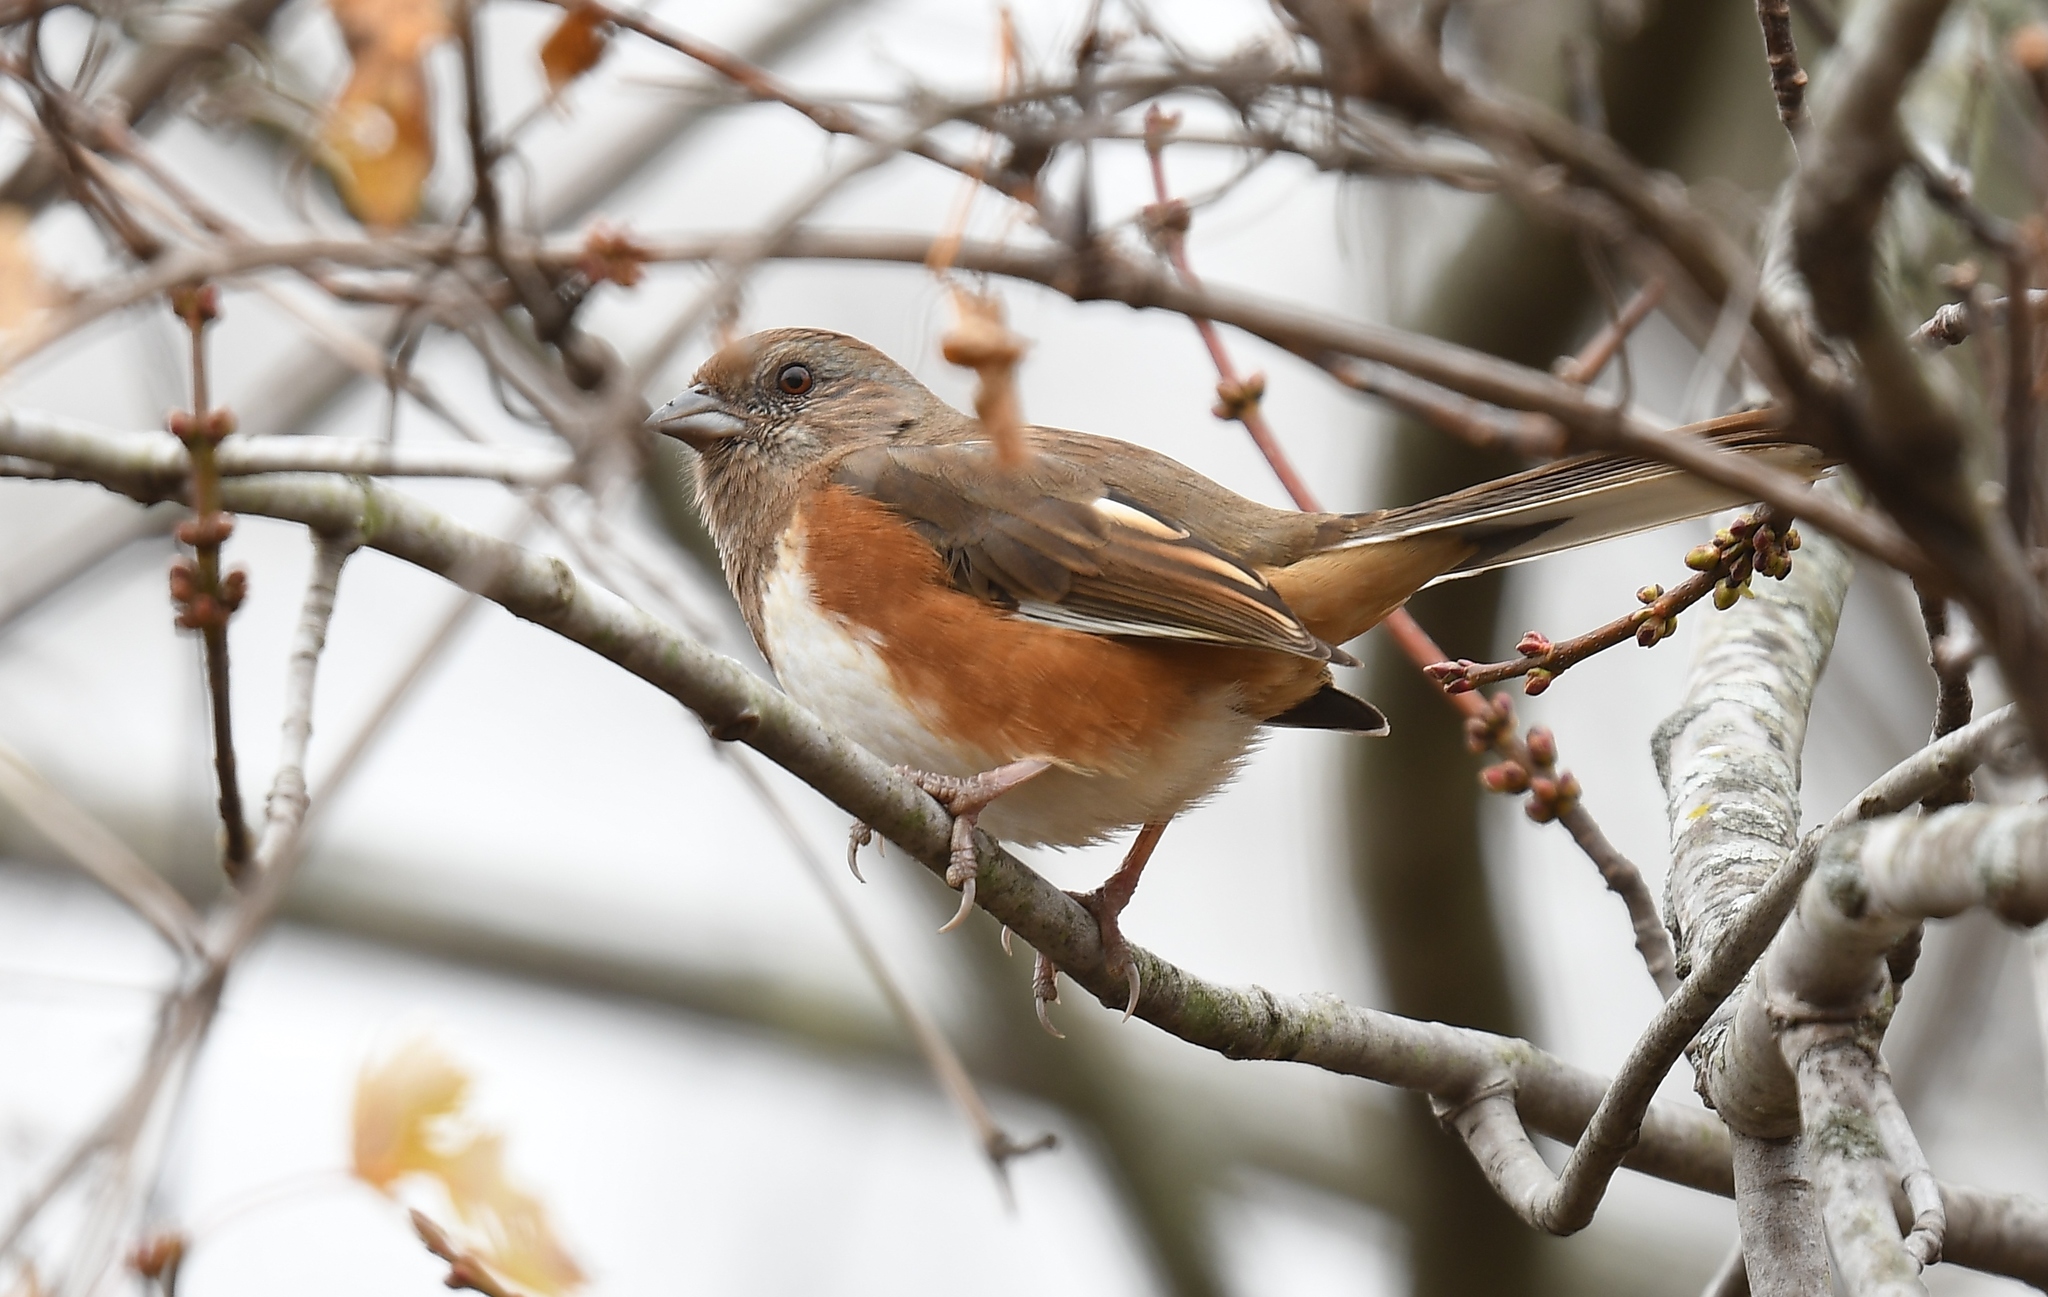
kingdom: Animalia
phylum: Chordata
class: Aves
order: Passeriformes
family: Passerellidae
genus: Pipilo
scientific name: Pipilo erythrophthalmus
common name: Eastern towhee
